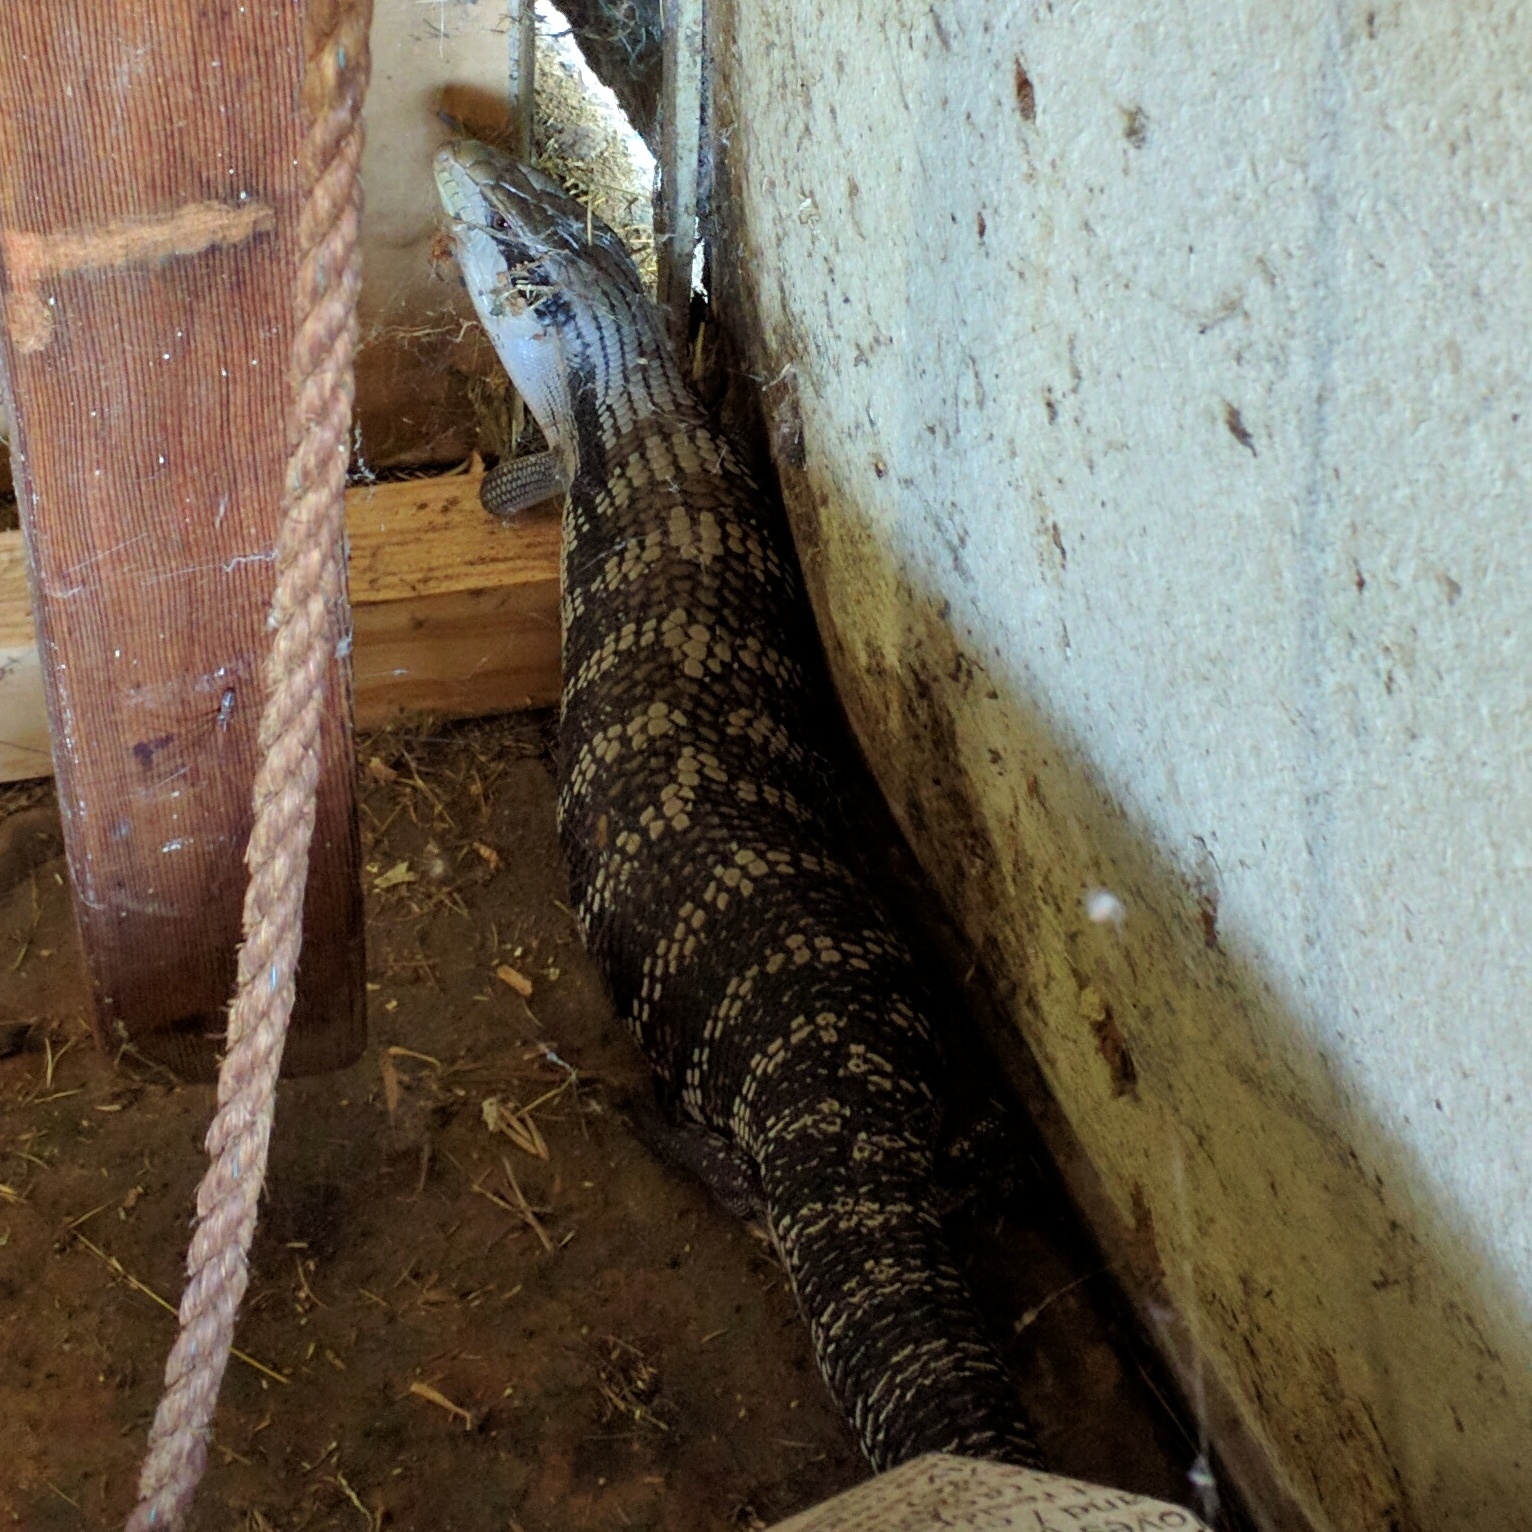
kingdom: Animalia
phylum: Chordata
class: Squamata
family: Scincidae
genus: Tiliqua
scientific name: Tiliqua scincoides
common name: Common bluetongue
